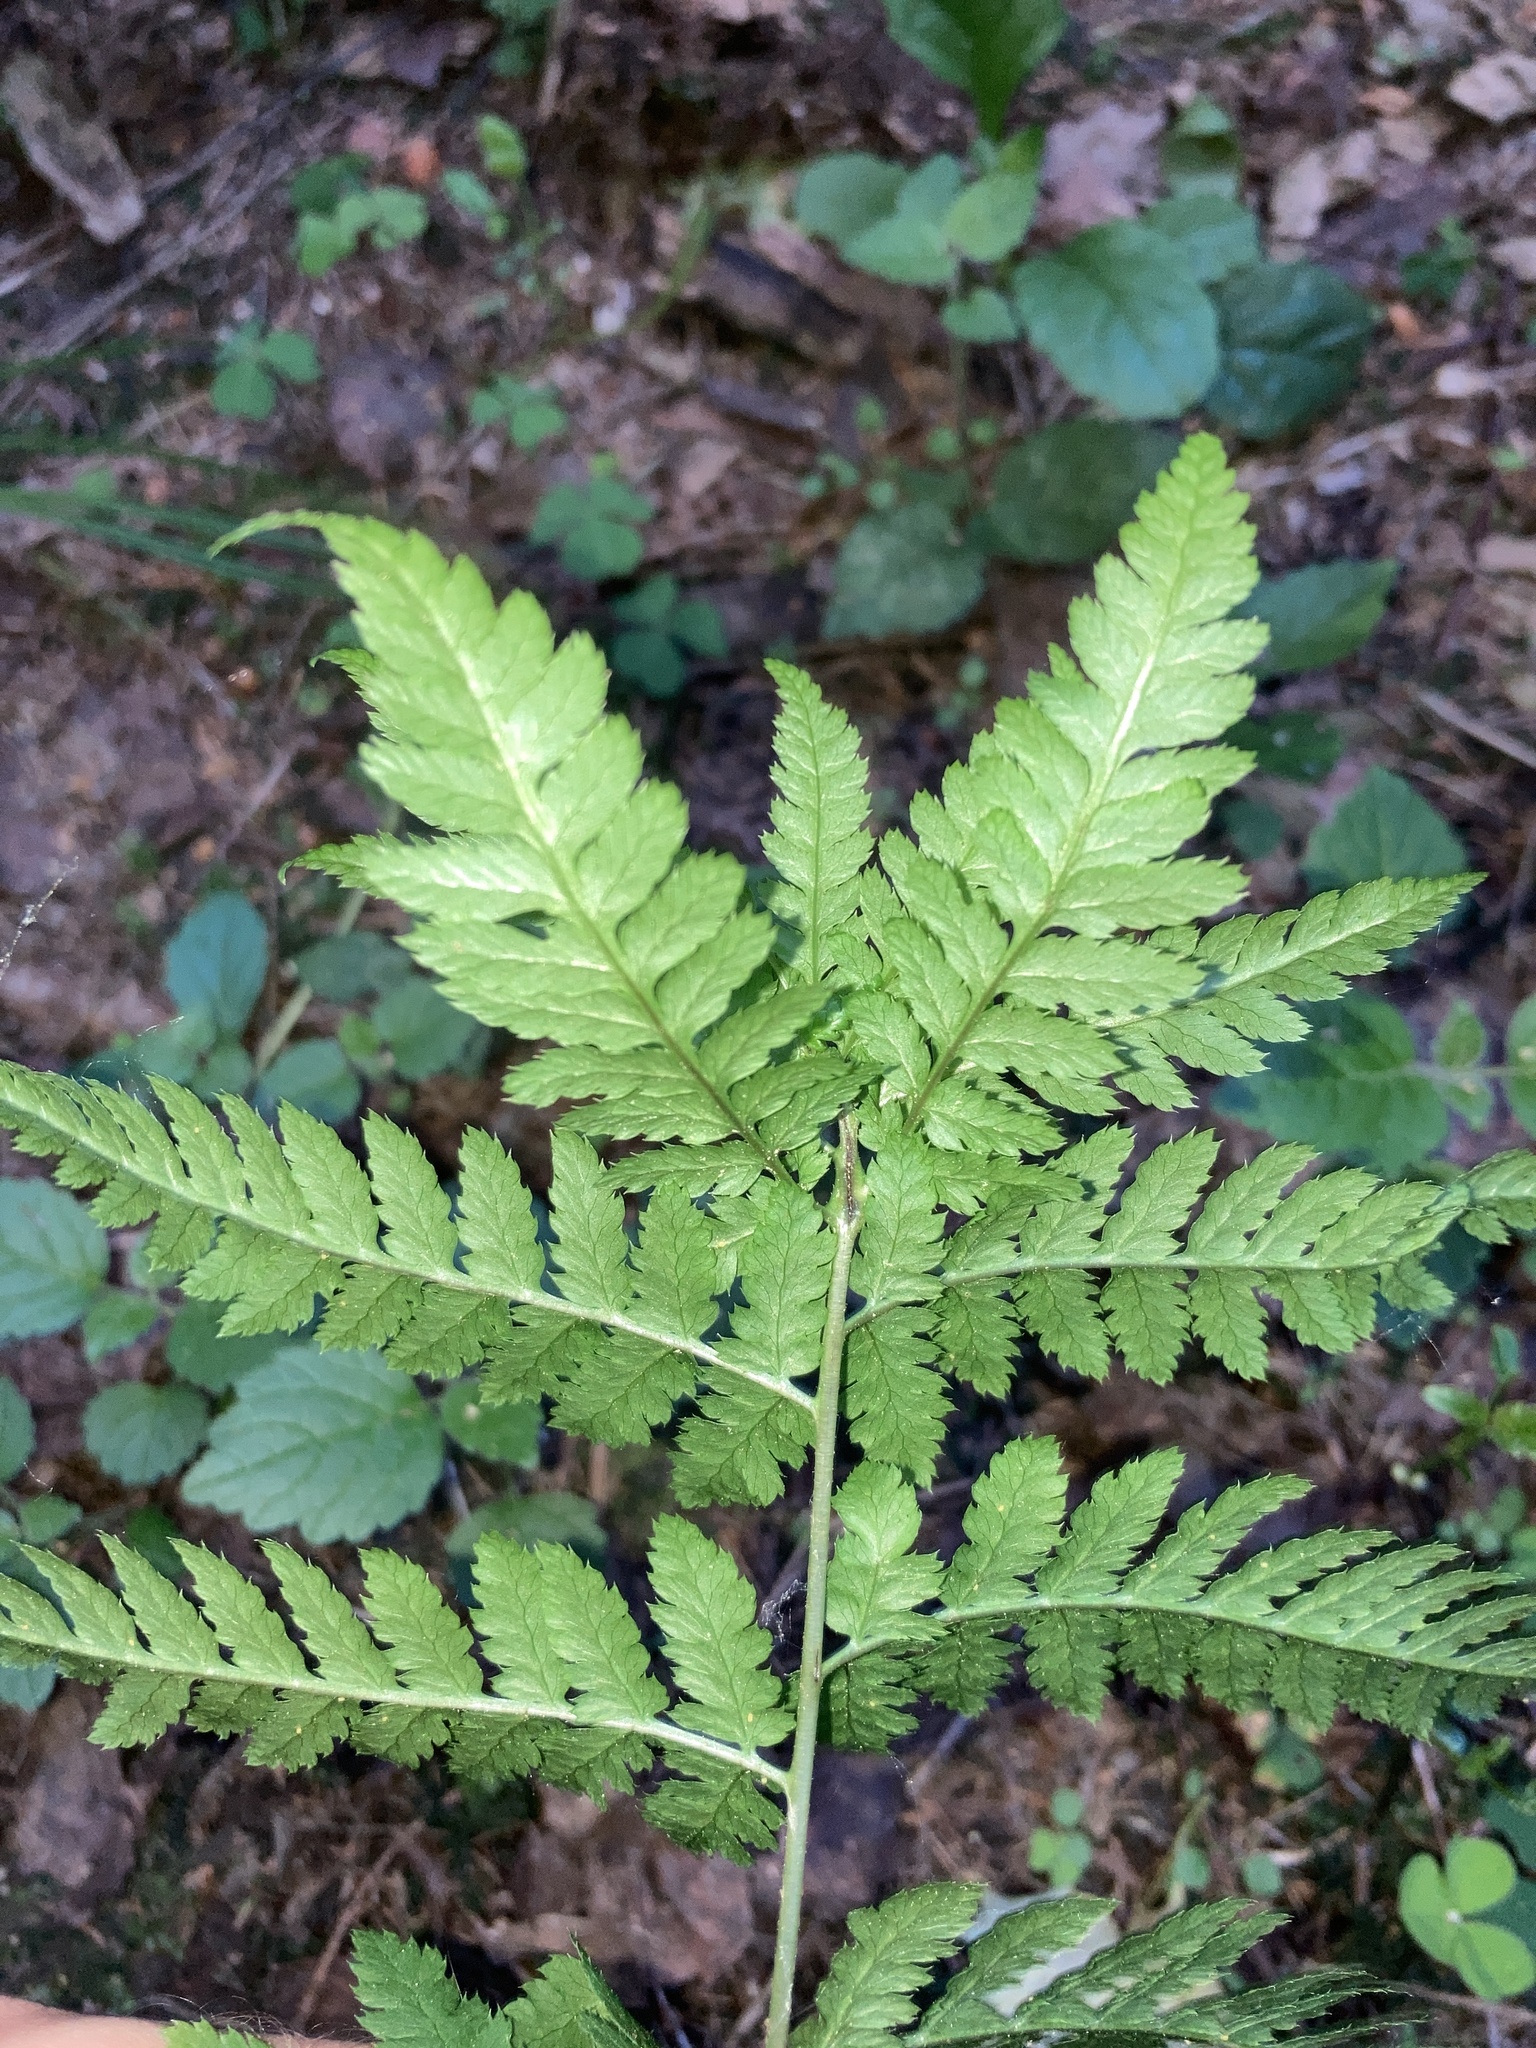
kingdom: Plantae
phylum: Tracheophyta
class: Polypodiopsida
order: Polypodiales
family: Dryopteridaceae
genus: Dryopteris
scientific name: Dryopteris carthusiana
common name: Narrow buckler-fern
